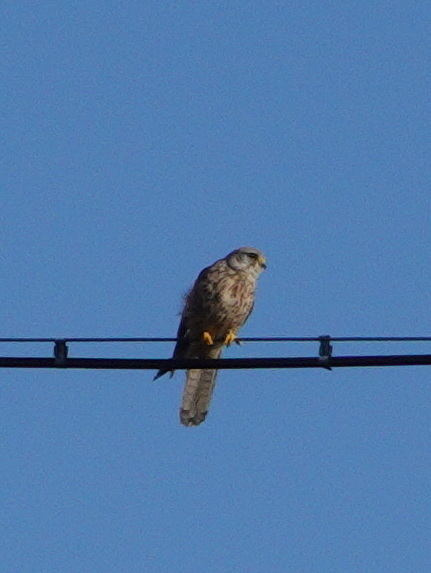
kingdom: Animalia
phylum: Chordata
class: Aves
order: Falconiformes
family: Falconidae
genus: Falco
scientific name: Falco tinnunculus
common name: Common kestrel
